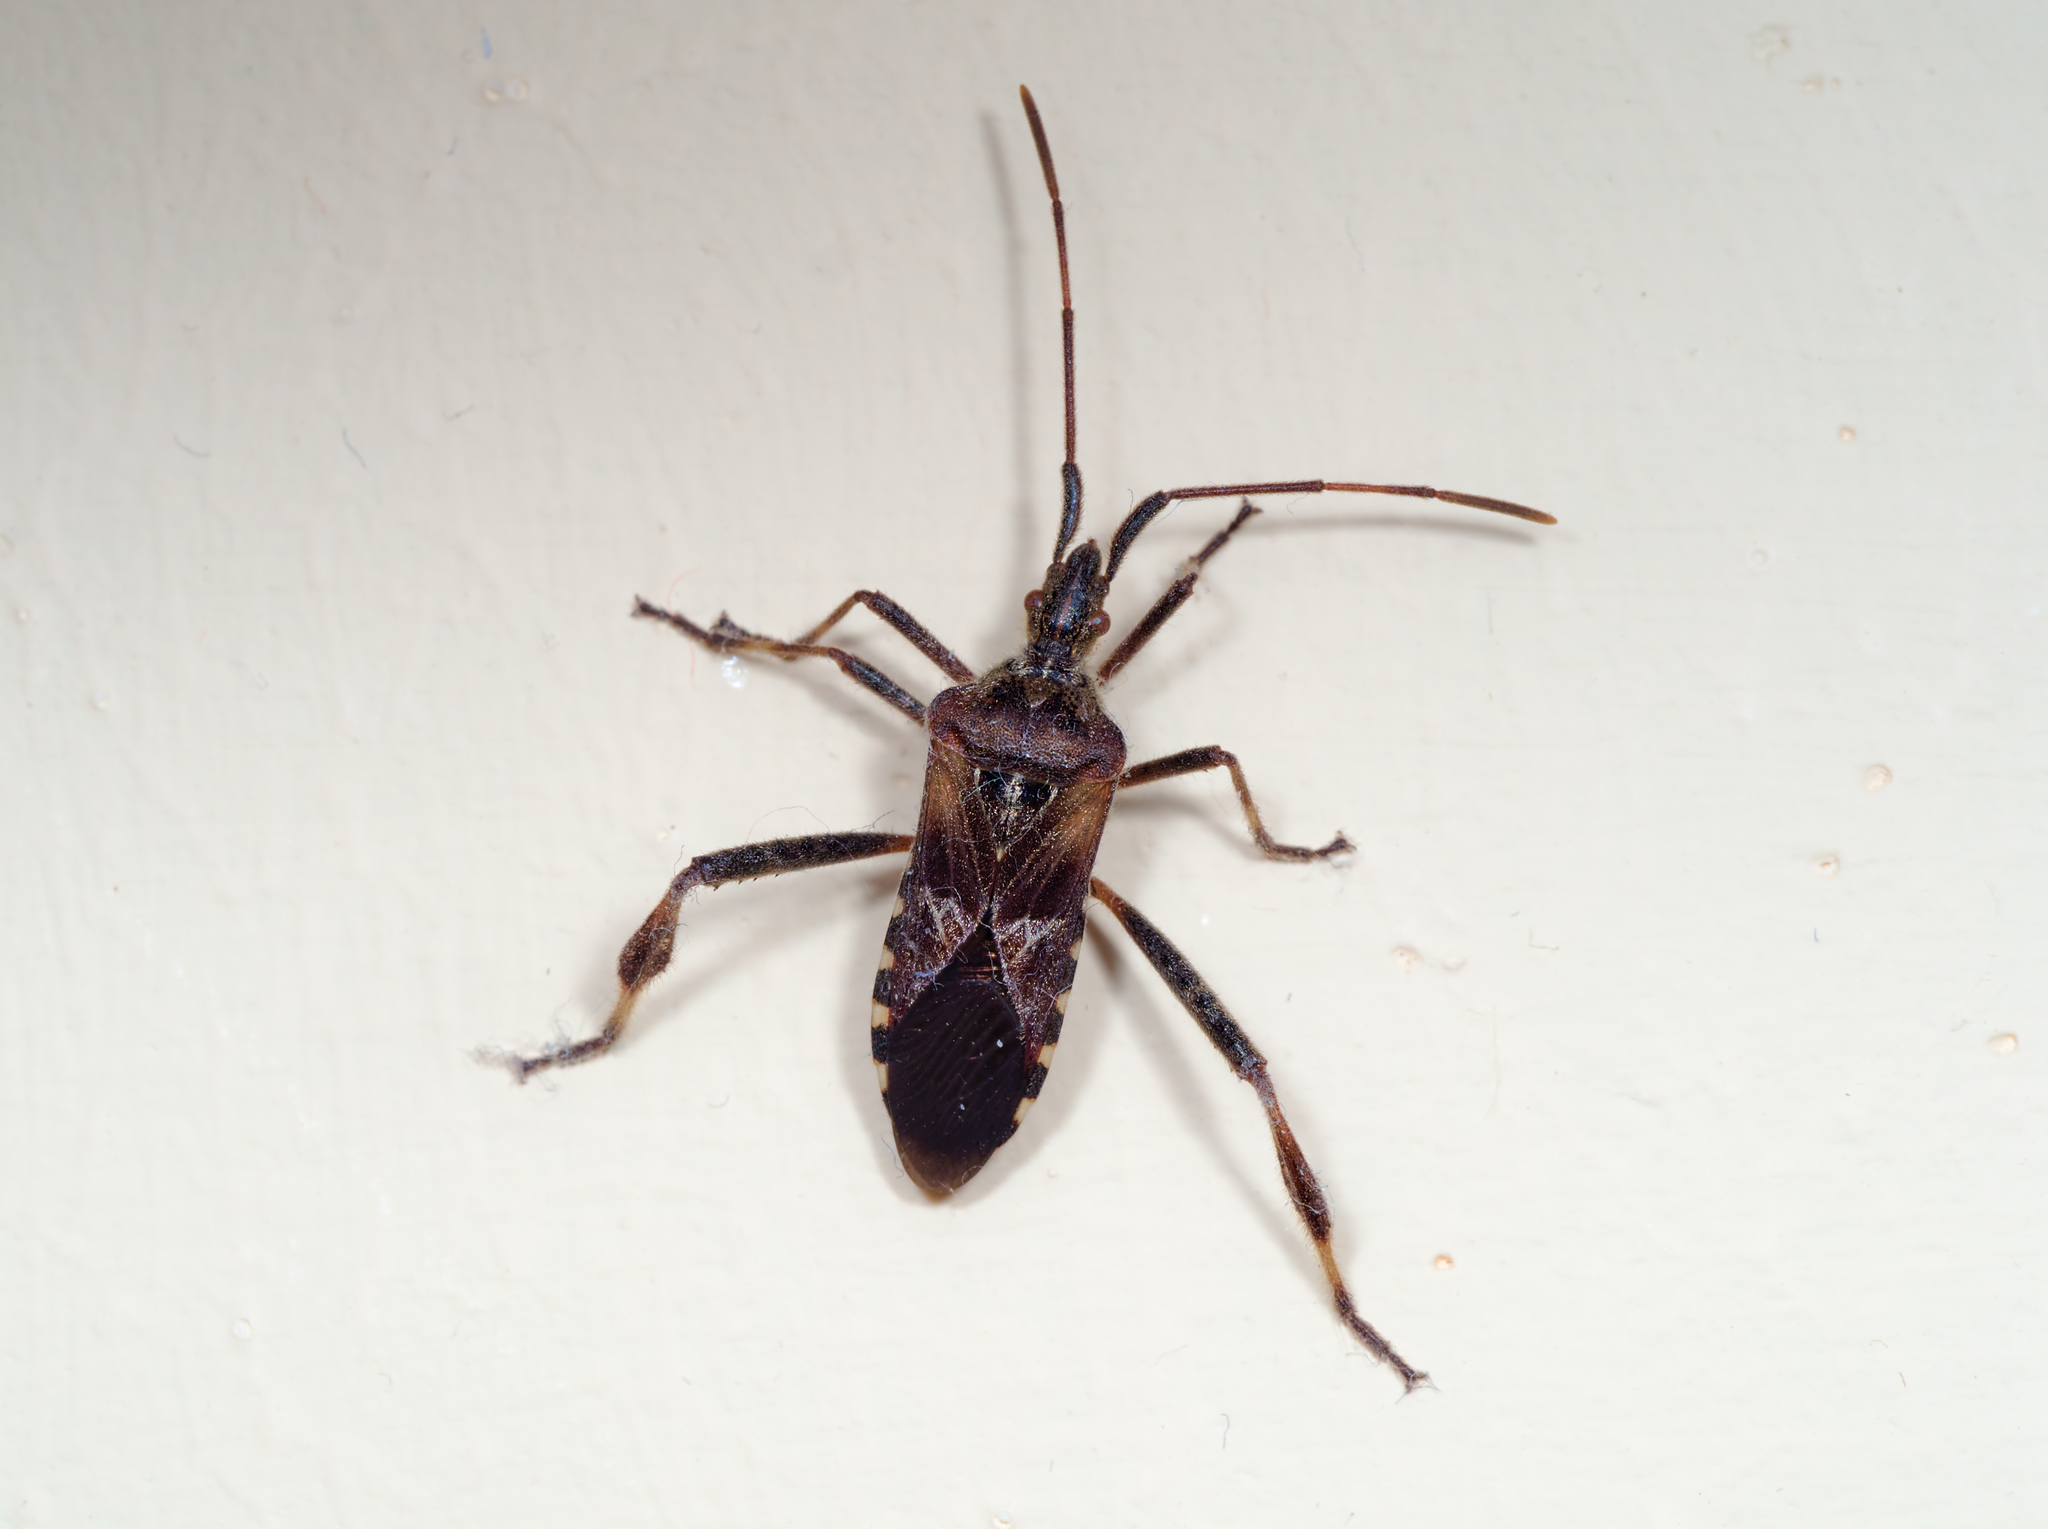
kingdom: Animalia
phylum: Arthropoda
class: Insecta
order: Hemiptera
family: Coreidae
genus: Leptoglossus
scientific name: Leptoglossus occidentalis
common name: Western conifer-seed bug
